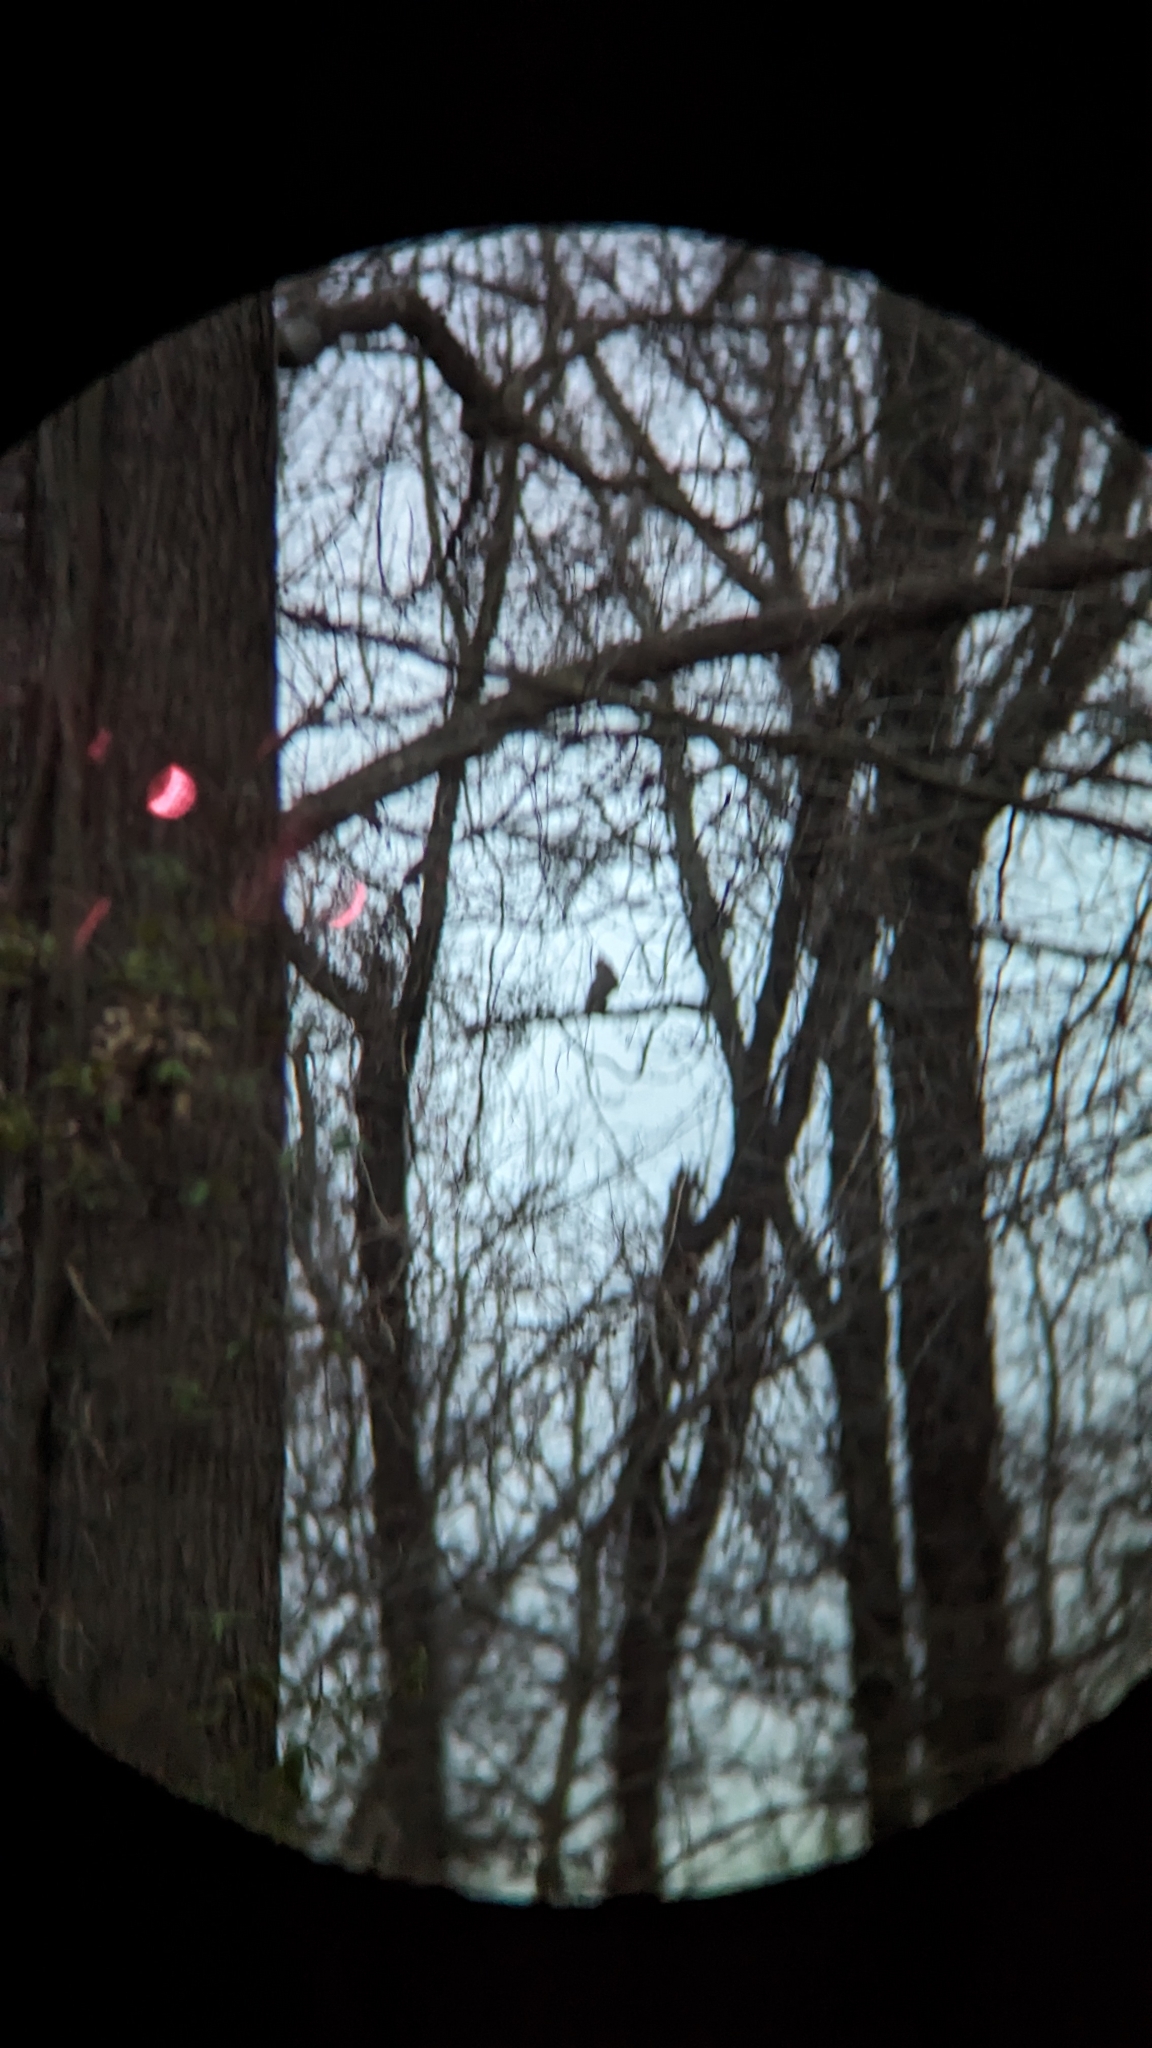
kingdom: Animalia
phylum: Chordata
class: Aves
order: Strigiformes
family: Strigidae
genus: Bubo
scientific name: Bubo virginianus
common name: Great horned owl
